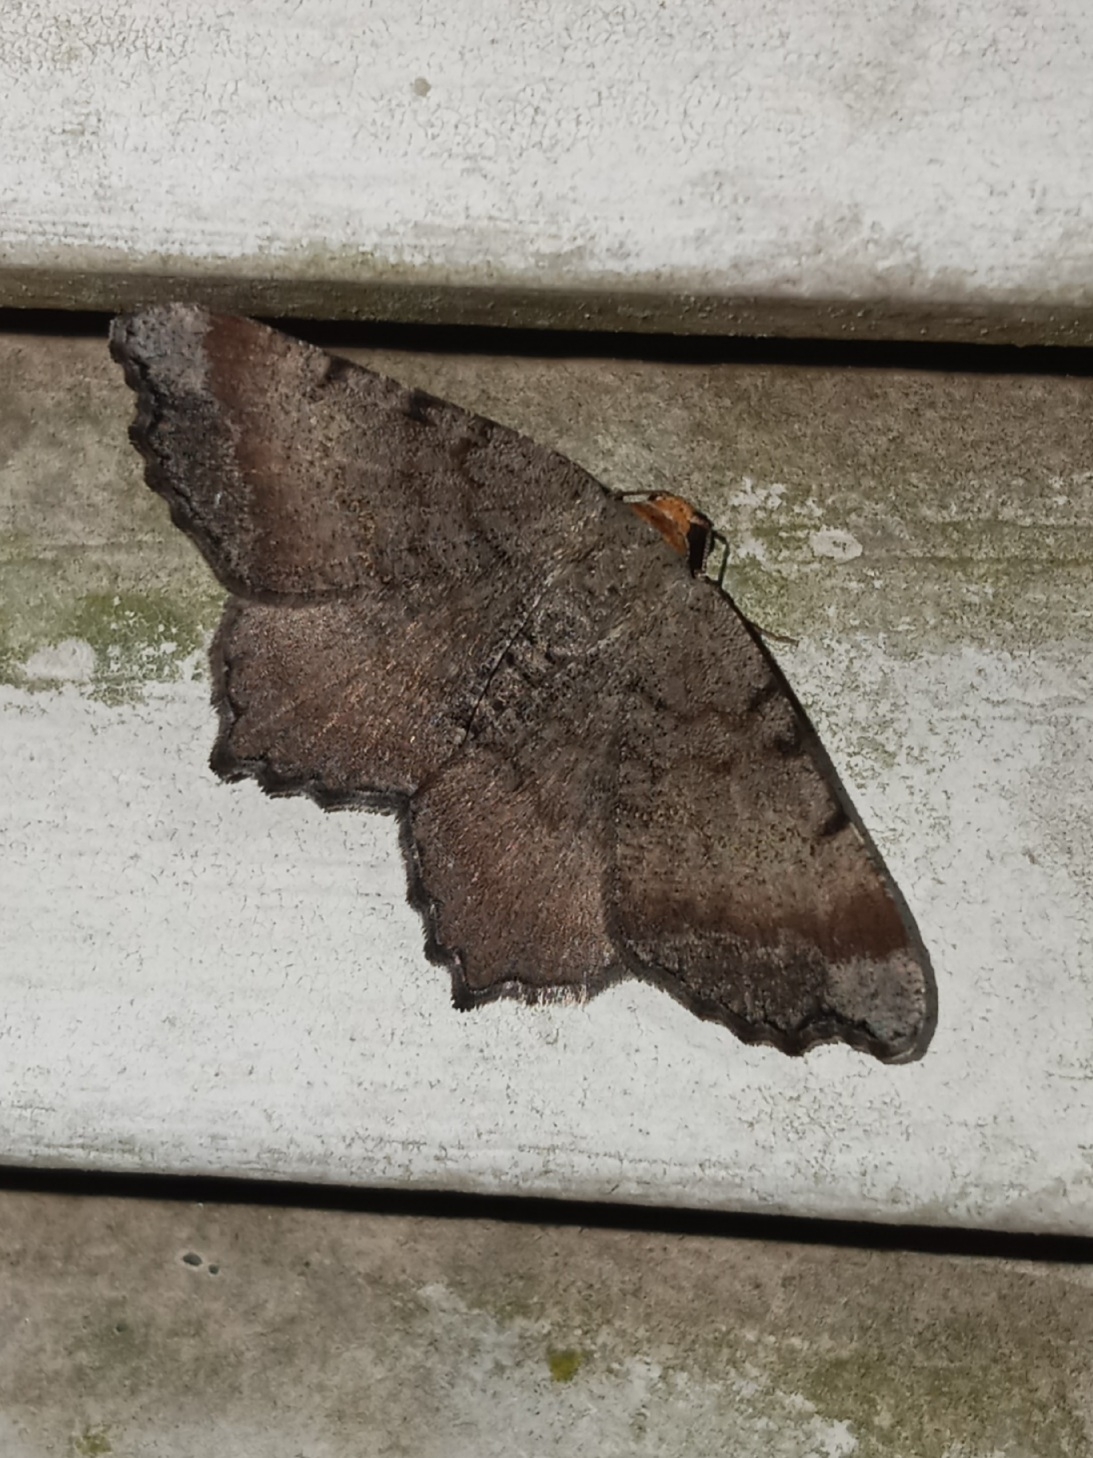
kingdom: Animalia
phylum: Arthropoda
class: Insecta
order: Lepidoptera
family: Geometridae
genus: Macaria
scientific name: Macaria transitaria
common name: Blurry chocolate angle
